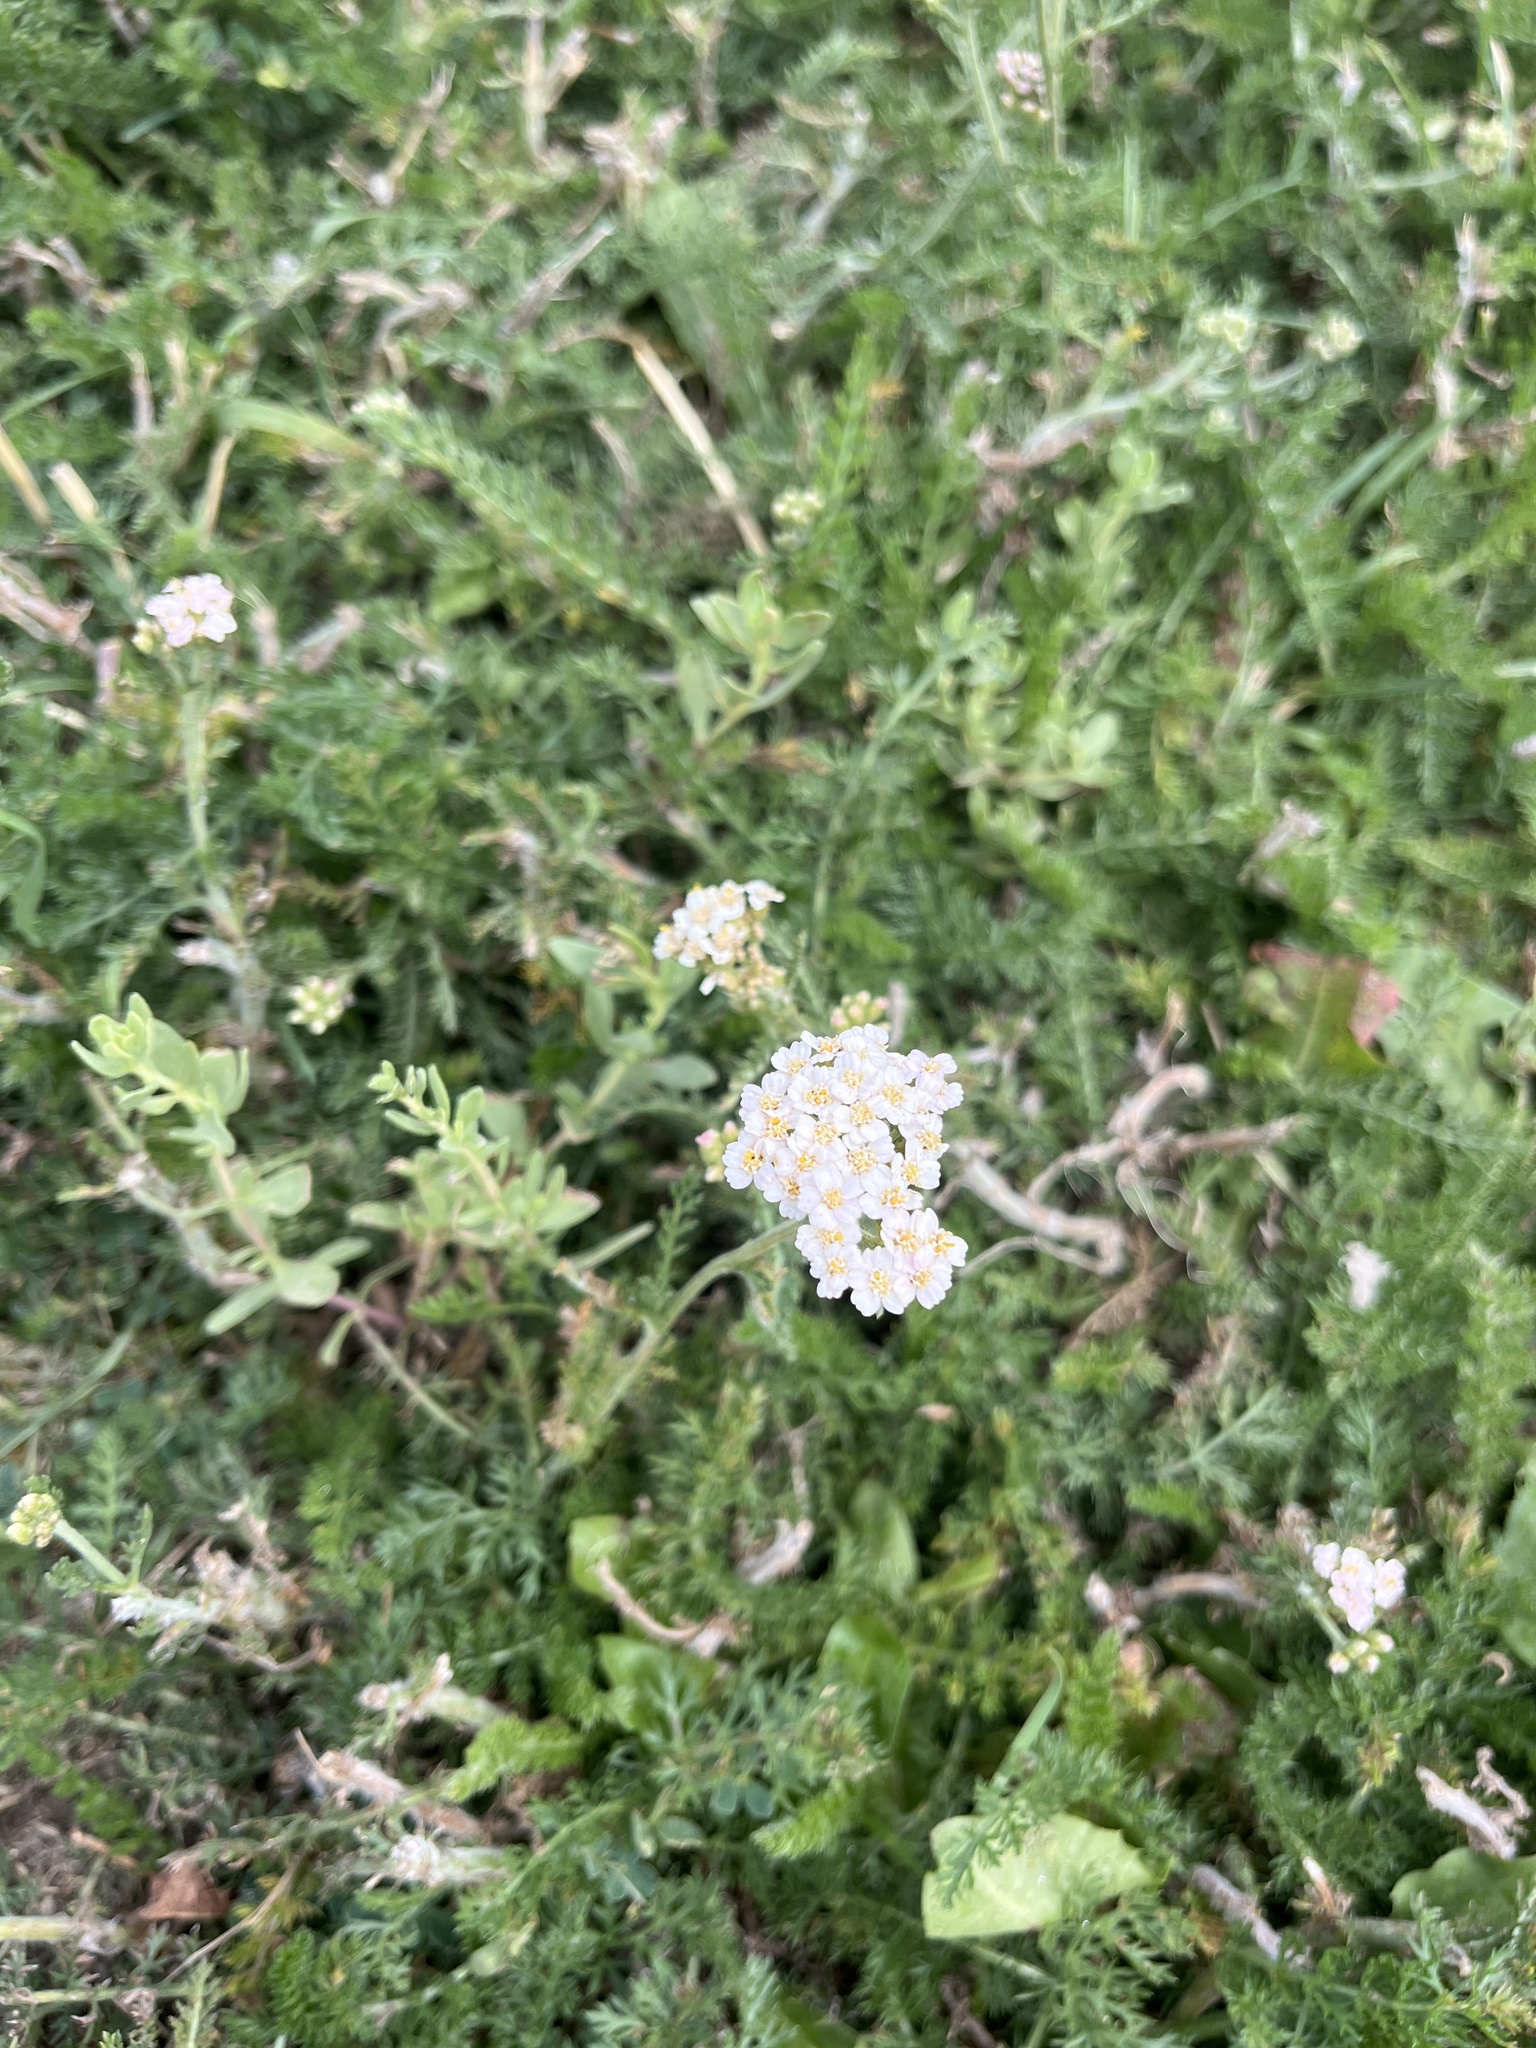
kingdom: Plantae
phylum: Tracheophyta
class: Magnoliopsida
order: Asterales
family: Asteraceae
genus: Achillea
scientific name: Achillea millefolium
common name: Yarrow
